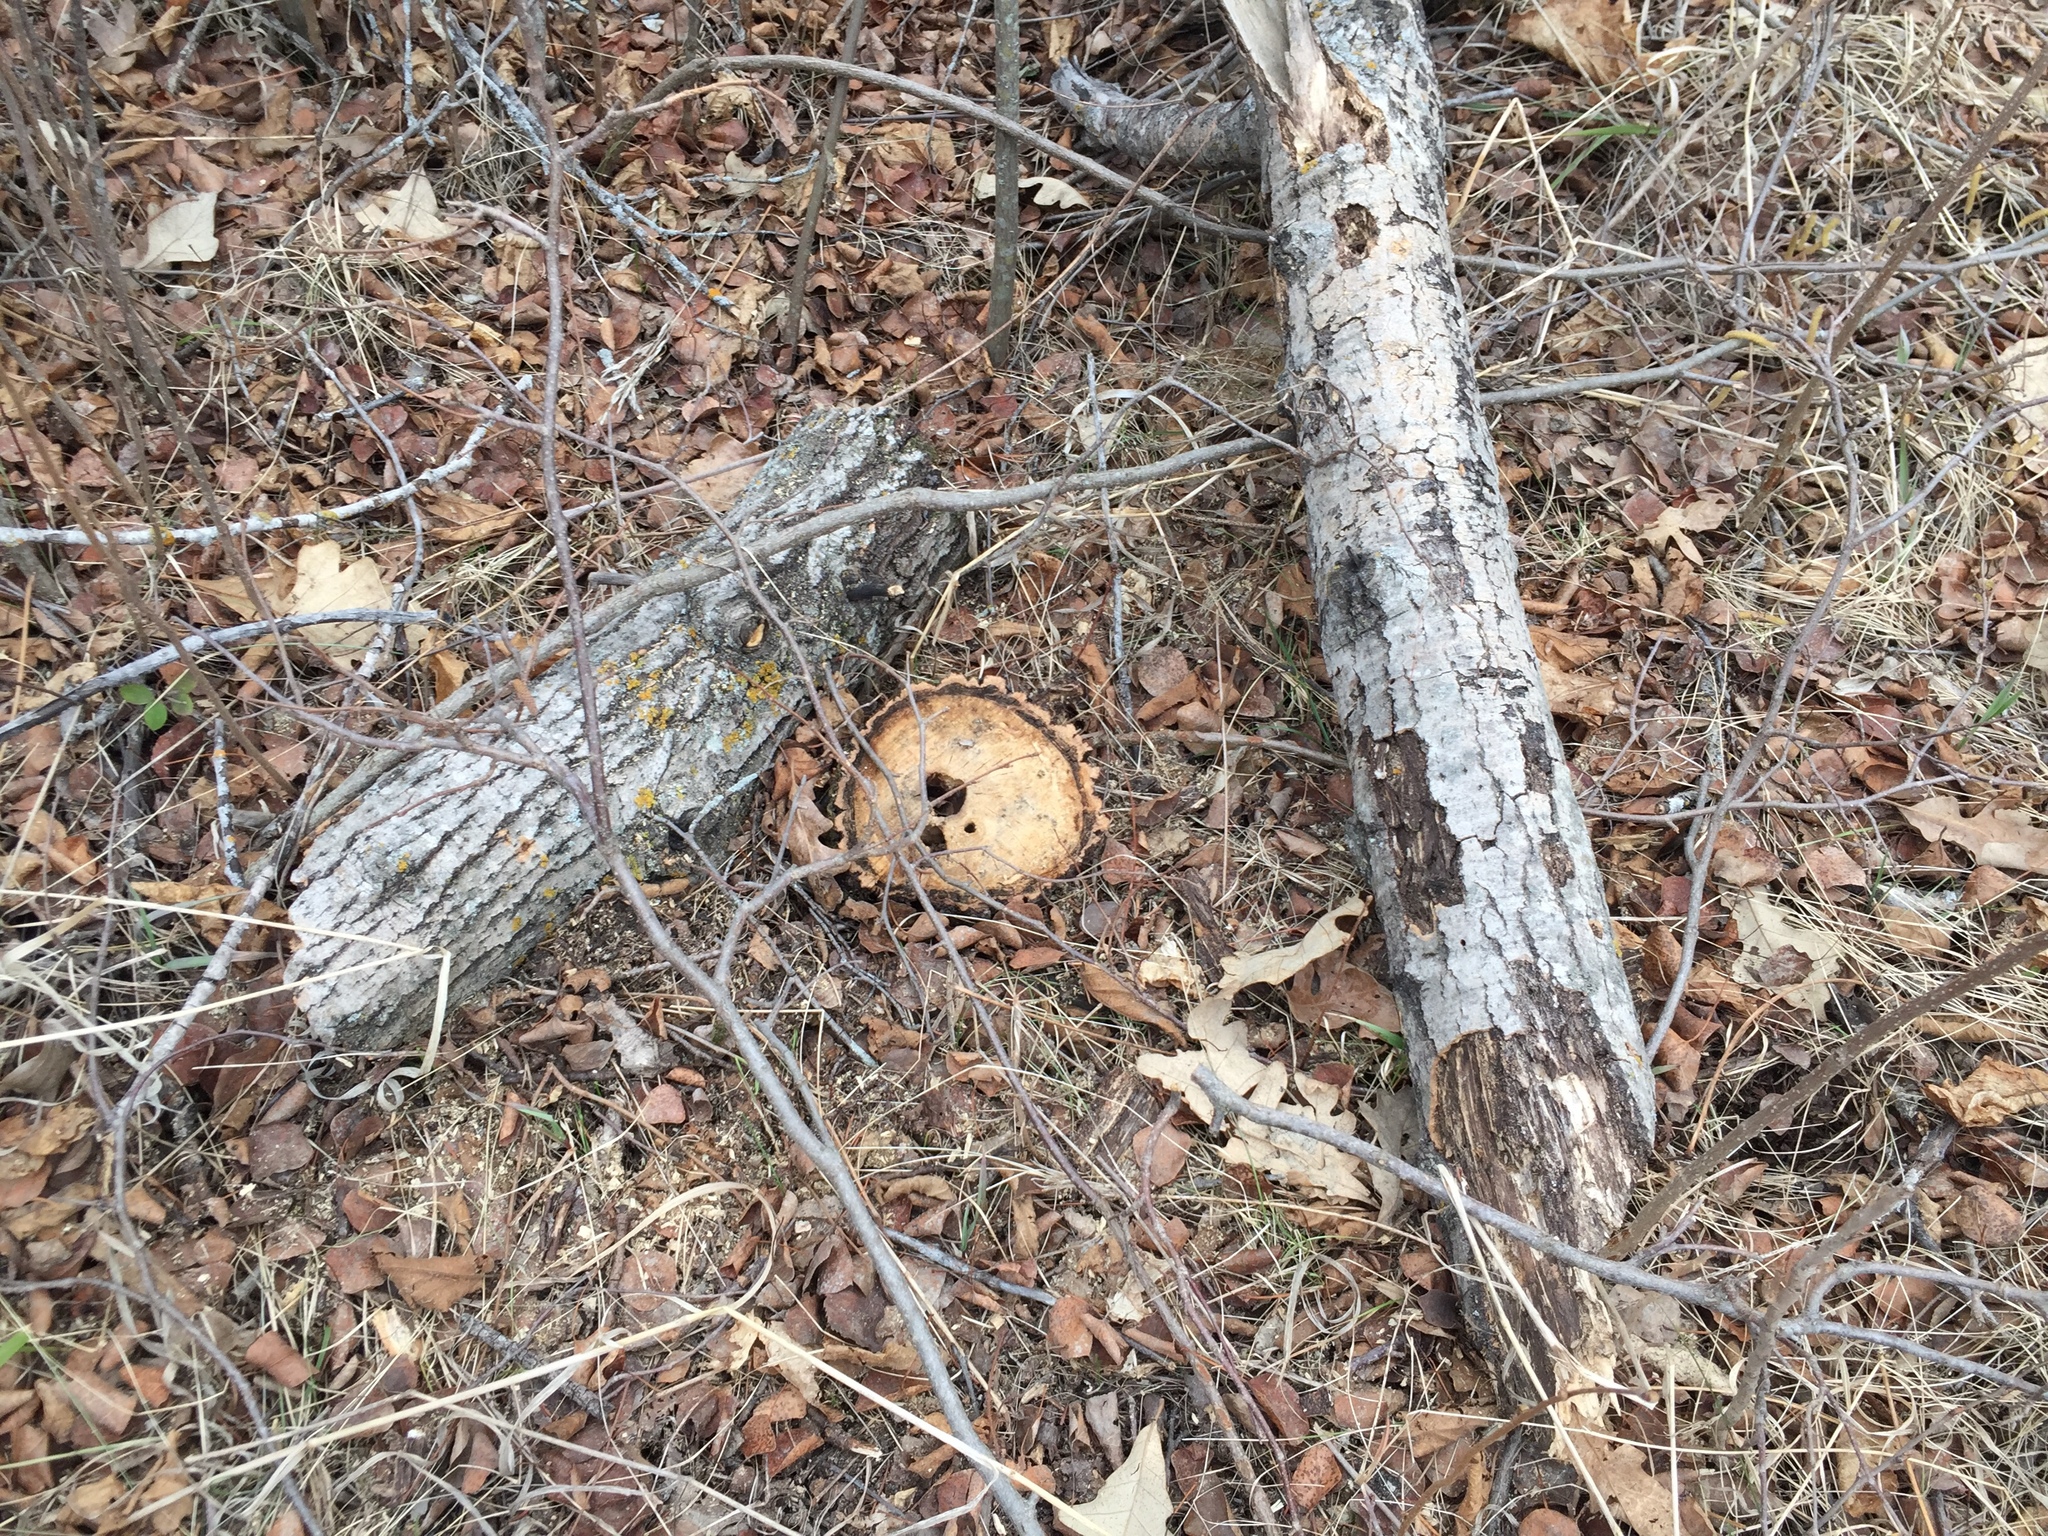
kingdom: Plantae
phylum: Tracheophyta
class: Magnoliopsida
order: Malpighiales
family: Salicaceae
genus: Populus
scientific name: Populus tremuloides
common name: Quaking aspen
